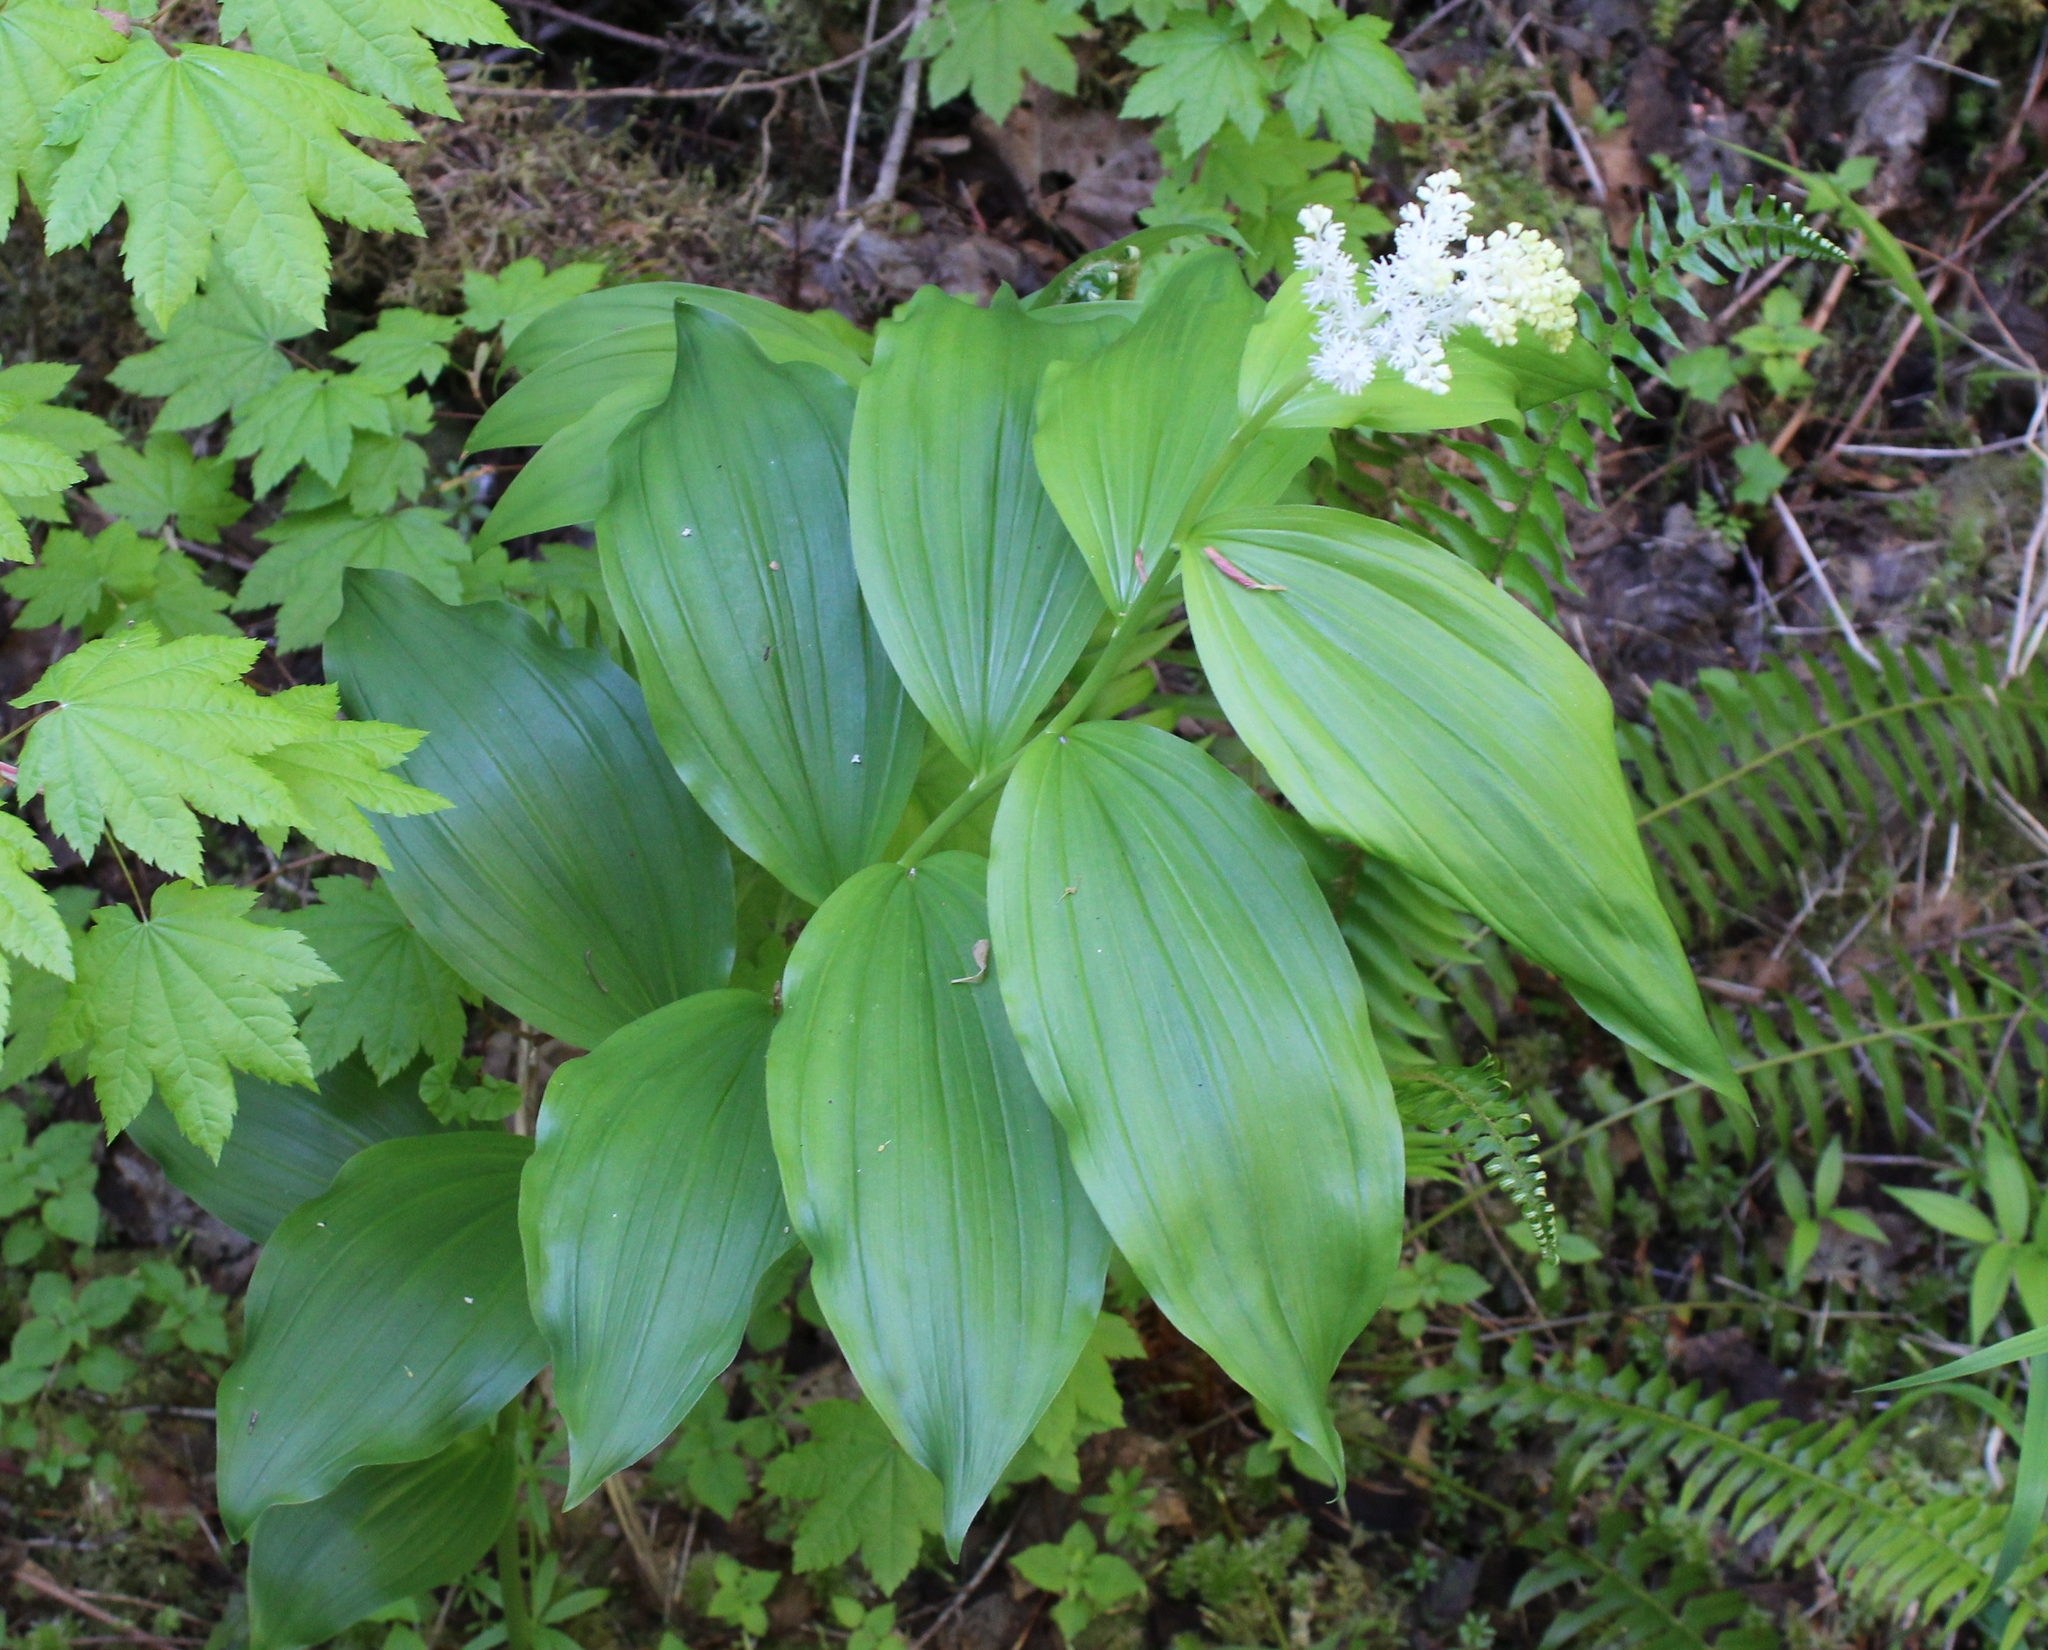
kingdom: Plantae
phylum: Tracheophyta
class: Liliopsida
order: Asparagales
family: Asparagaceae
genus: Maianthemum
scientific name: Maianthemum racemosum
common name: False spikenard
